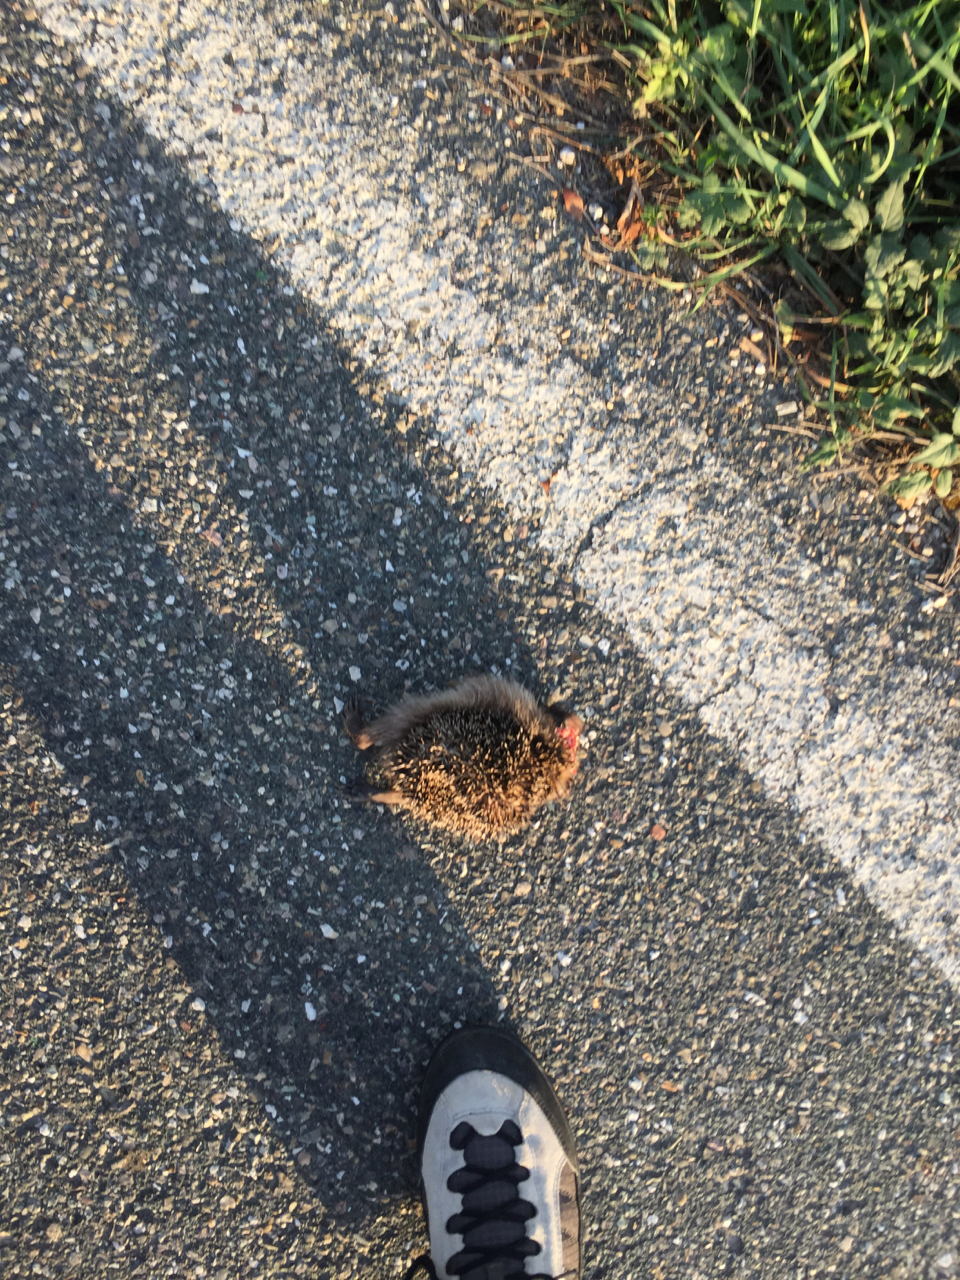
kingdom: Animalia
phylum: Chordata
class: Mammalia
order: Erinaceomorpha
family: Erinaceidae
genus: Erinaceus
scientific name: Erinaceus europaeus
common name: West european hedgehog
